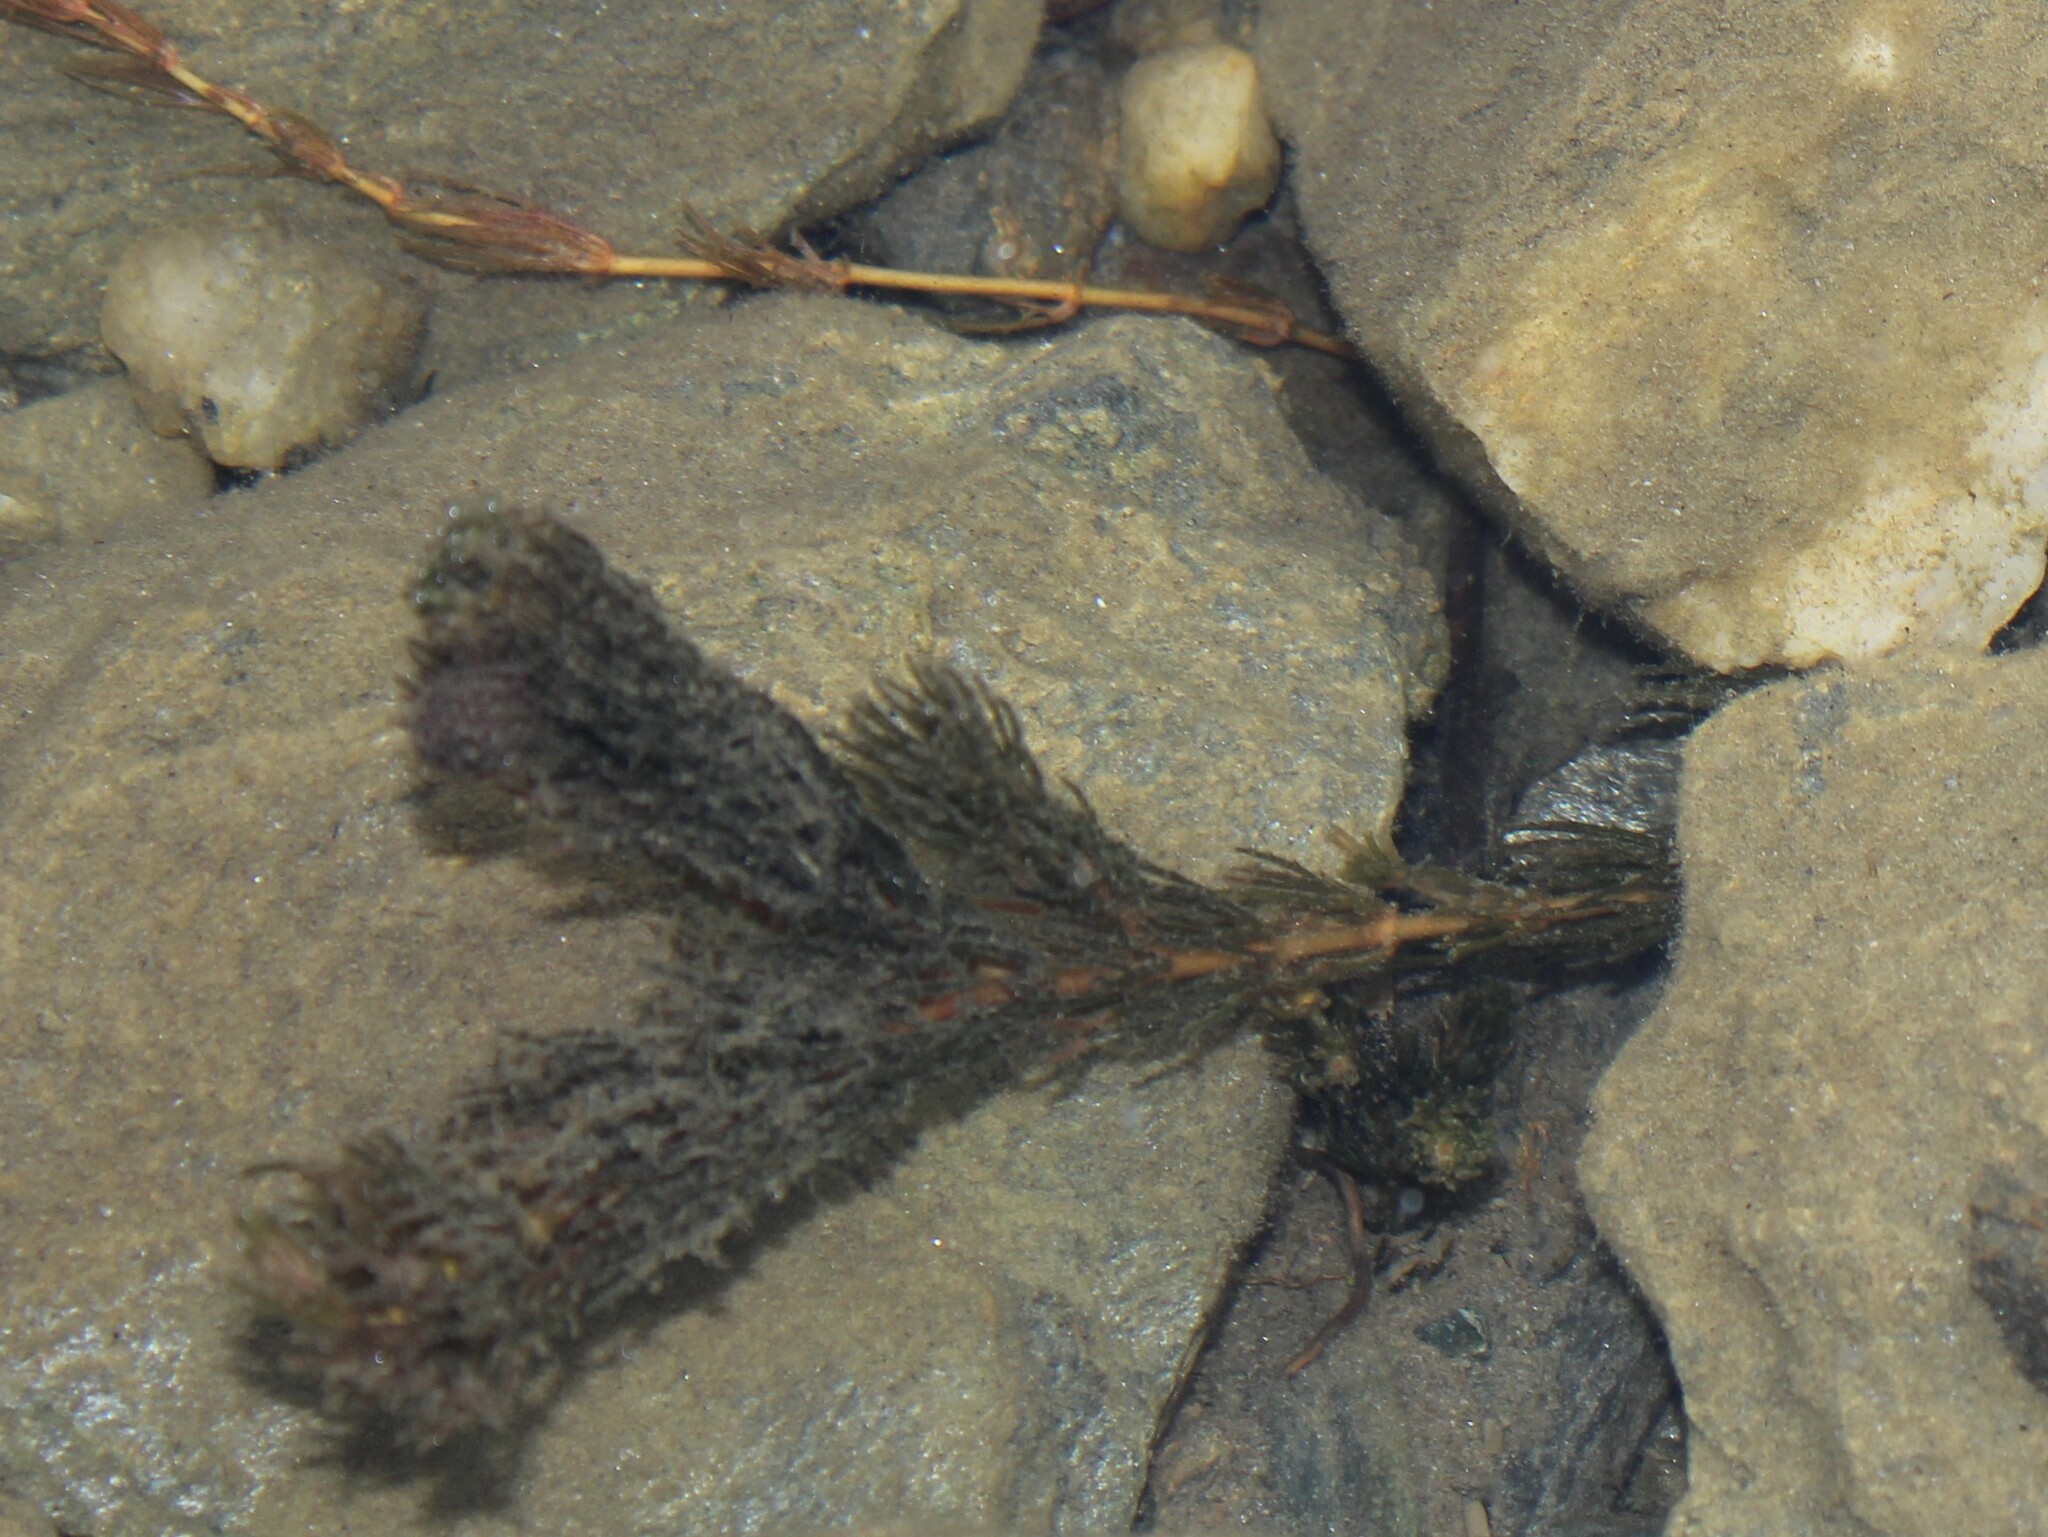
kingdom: Plantae
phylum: Tracheophyta
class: Magnoliopsida
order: Ceratophyllales
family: Ceratophyllaceae
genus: Ceratophyllum
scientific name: Ceratophyllum demersum
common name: Rigid hornwort
